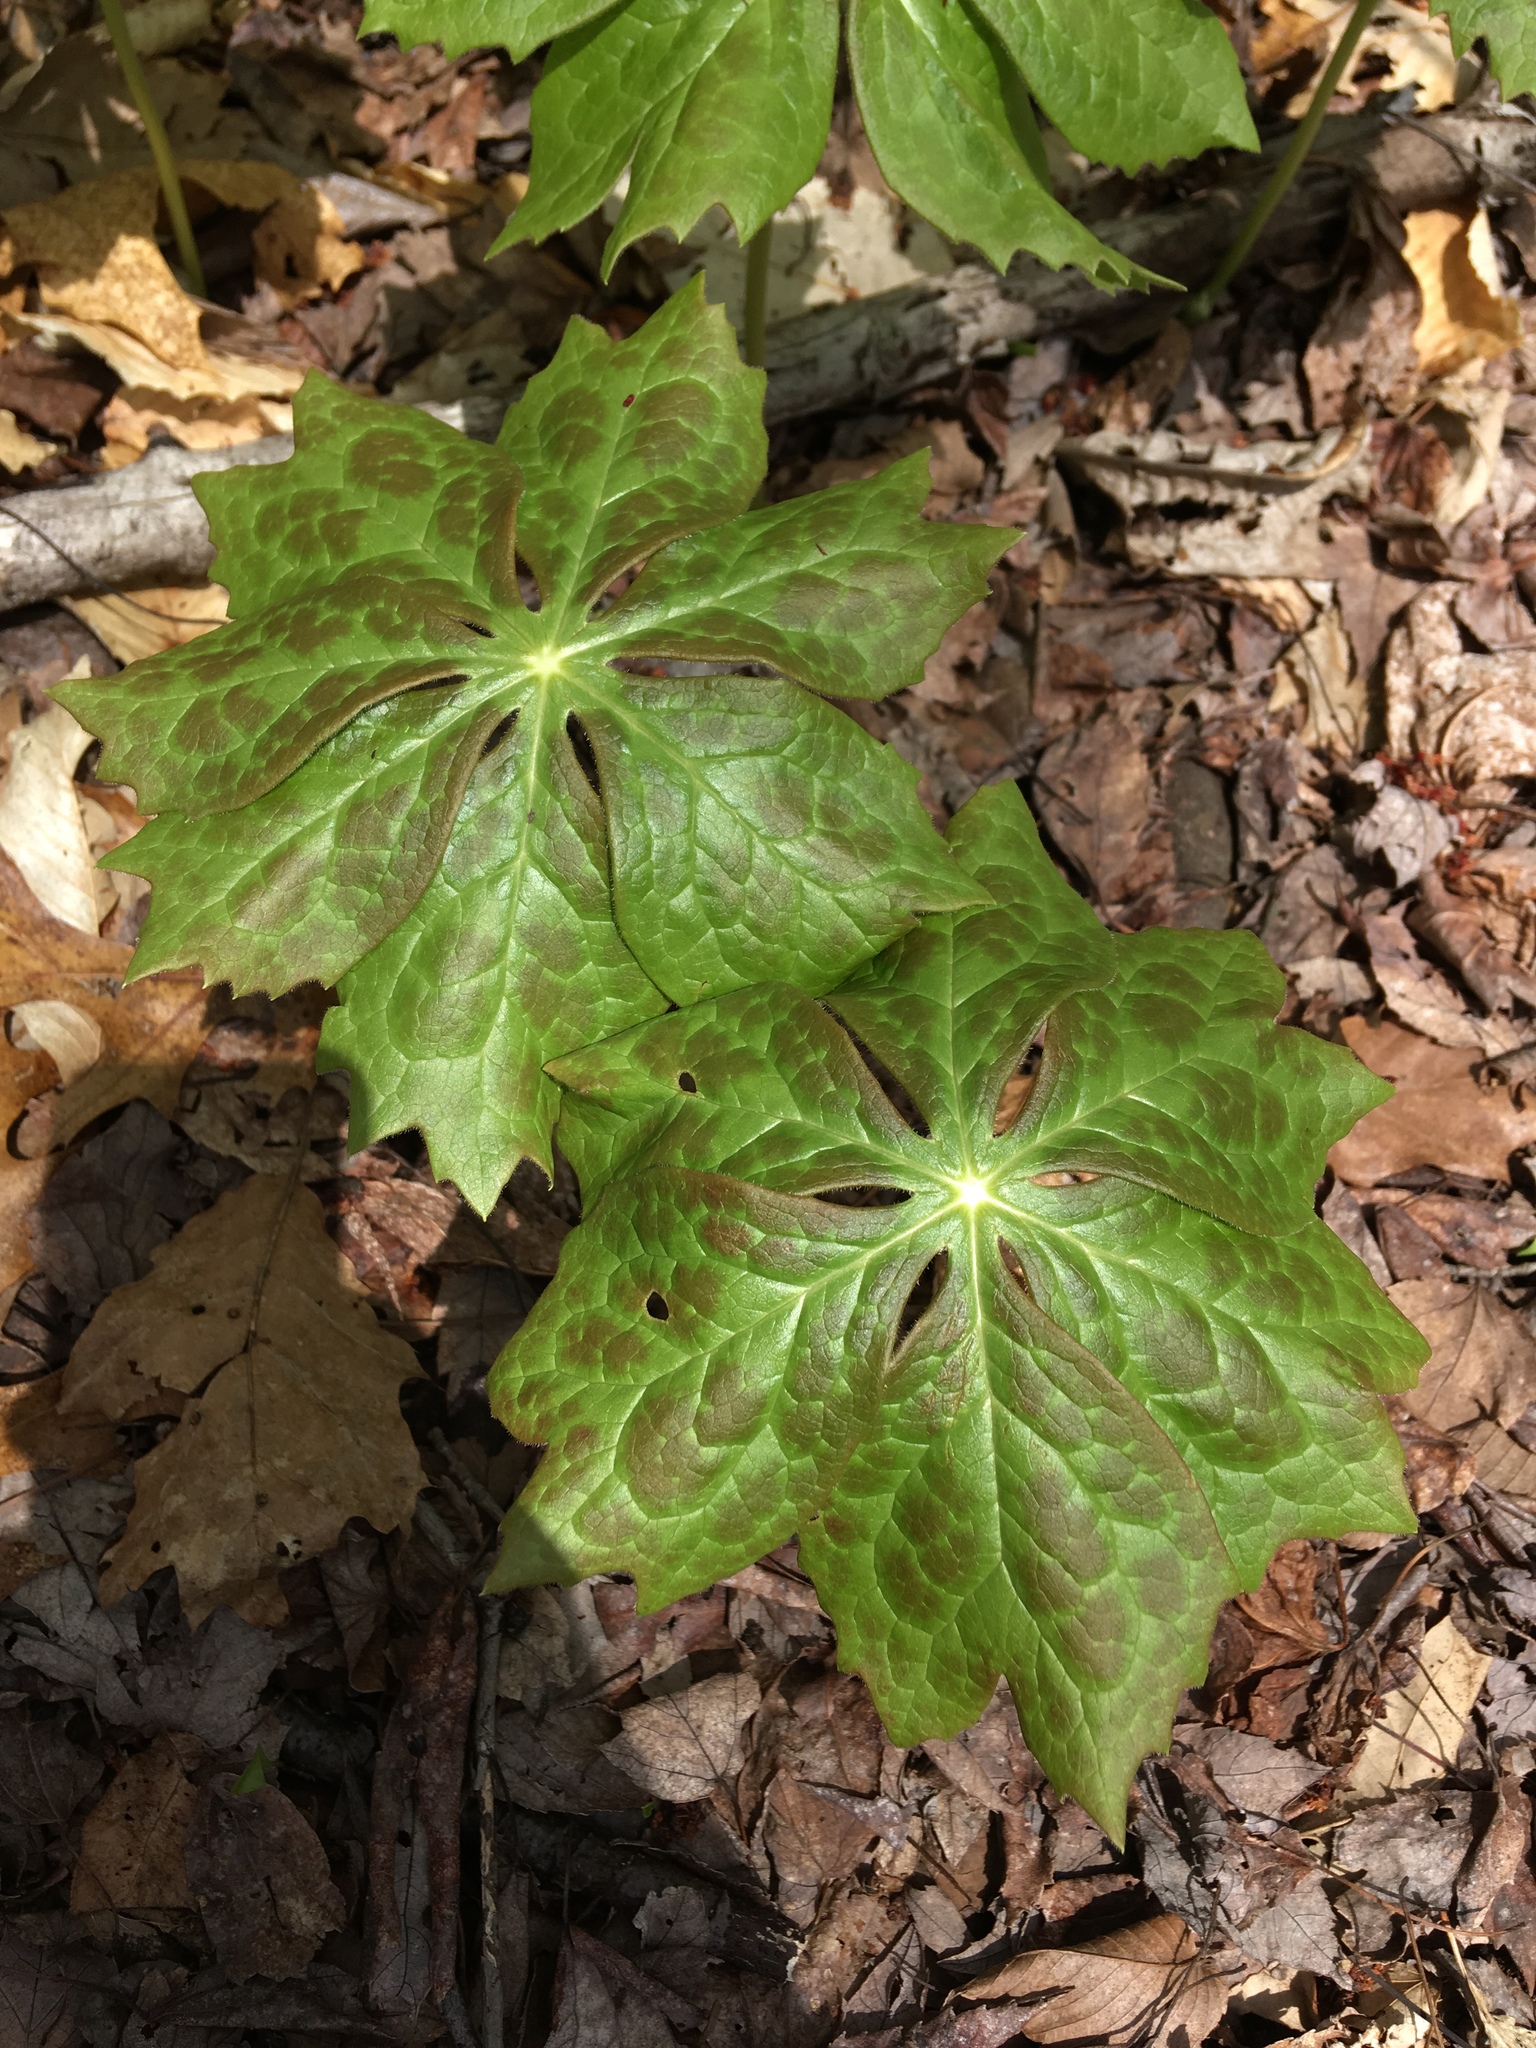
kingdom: Plantae
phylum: Tracheophyta
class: Magnoliopsida
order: Ranunculales
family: Berberidaceae
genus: Podophyllum
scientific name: Podophyllum peltatum
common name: Wild mandrake
